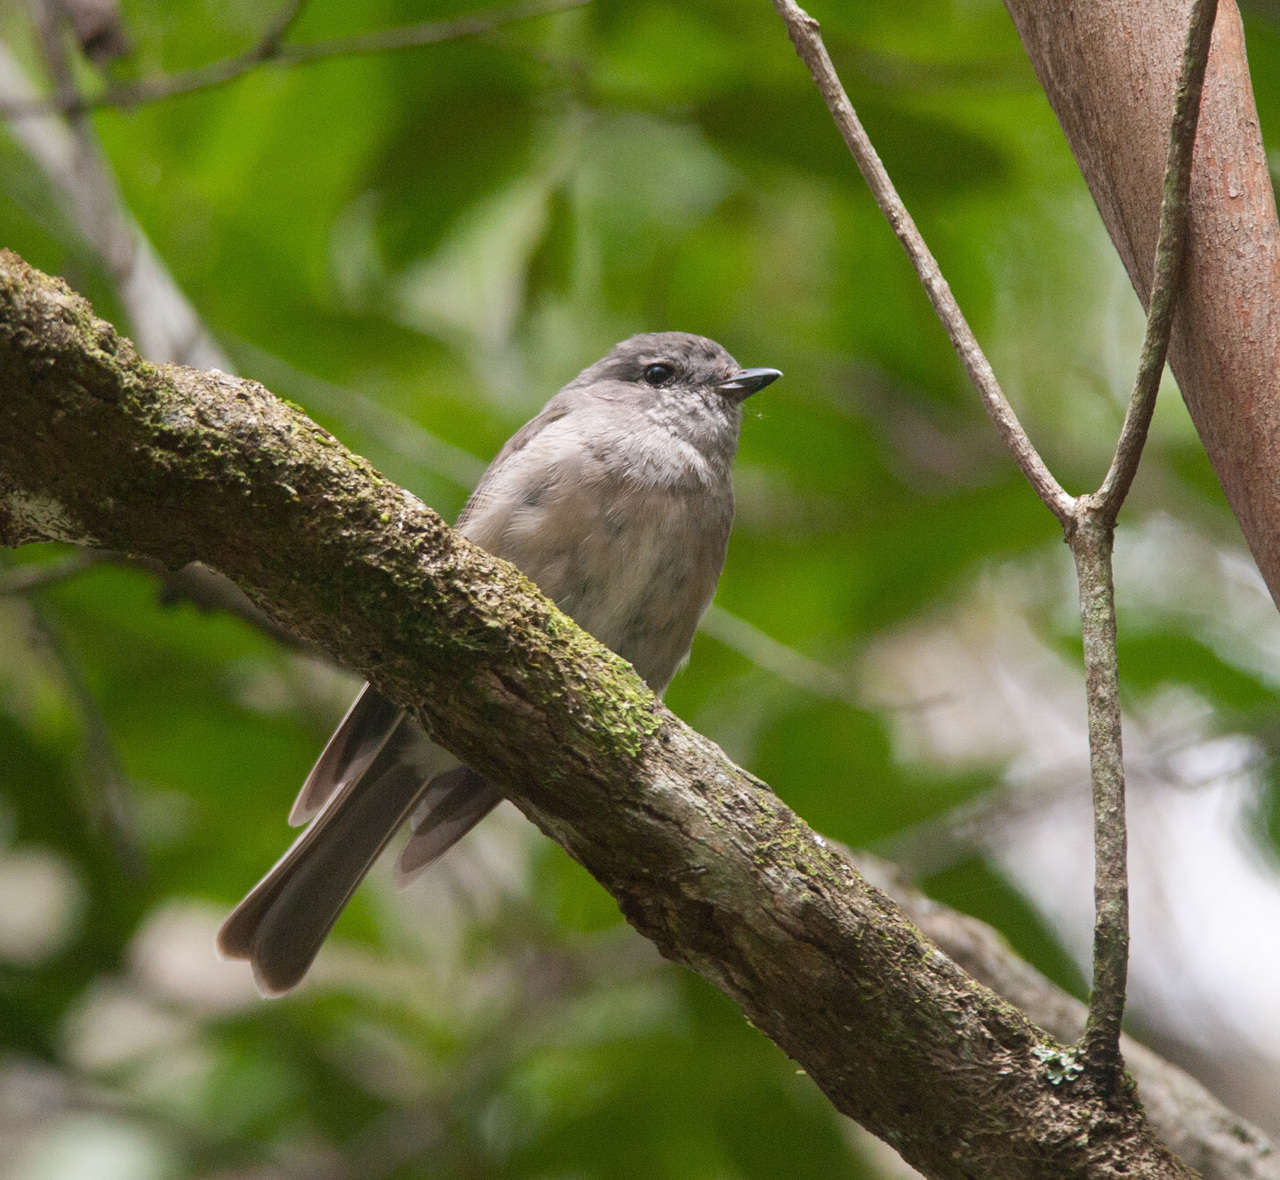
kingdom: Animalia
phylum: Chordata
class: Aves
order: Passeriformes
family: Petroicidae
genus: Petroica
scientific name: Petroica rosea
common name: Rose robin
